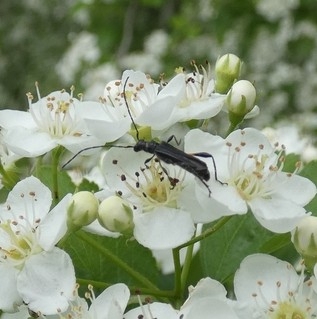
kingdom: Animalia
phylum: Arthropoda
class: Insecta
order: Coleoptera
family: Cerambycidae
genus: Molorchus
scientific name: Molorchus bimaculatus
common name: Bimaculate longhorn beetle
